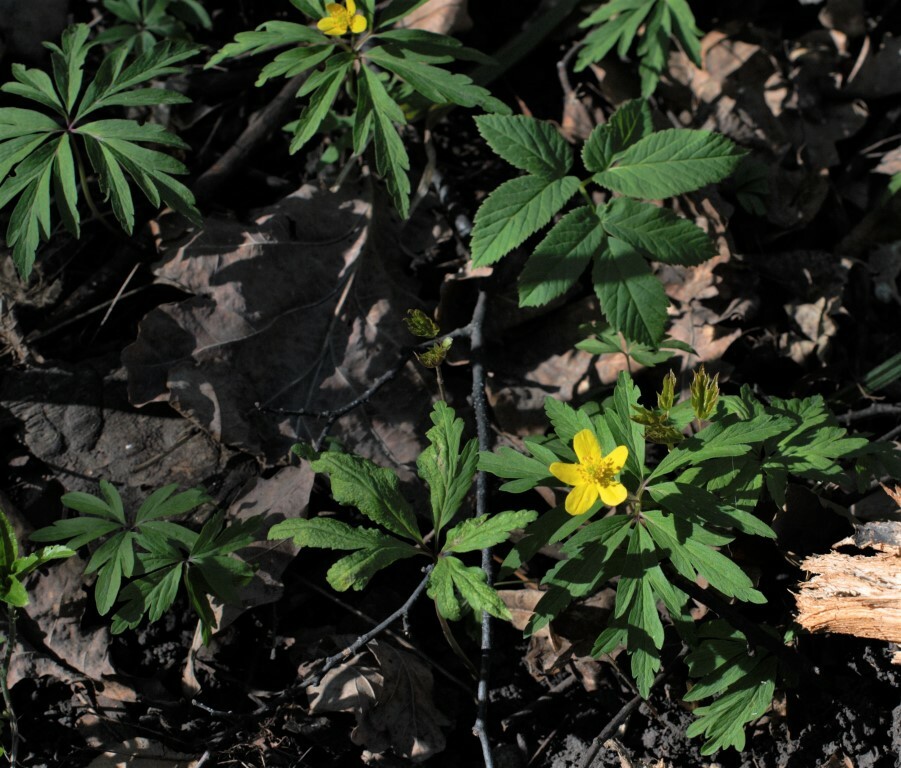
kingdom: Plantae
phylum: Tracheophyta
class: Magnoliopsida
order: Ranunculales
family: Ranunculaceae
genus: Anemone
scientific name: Anemone ranunculoides
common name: Yellow anemone
